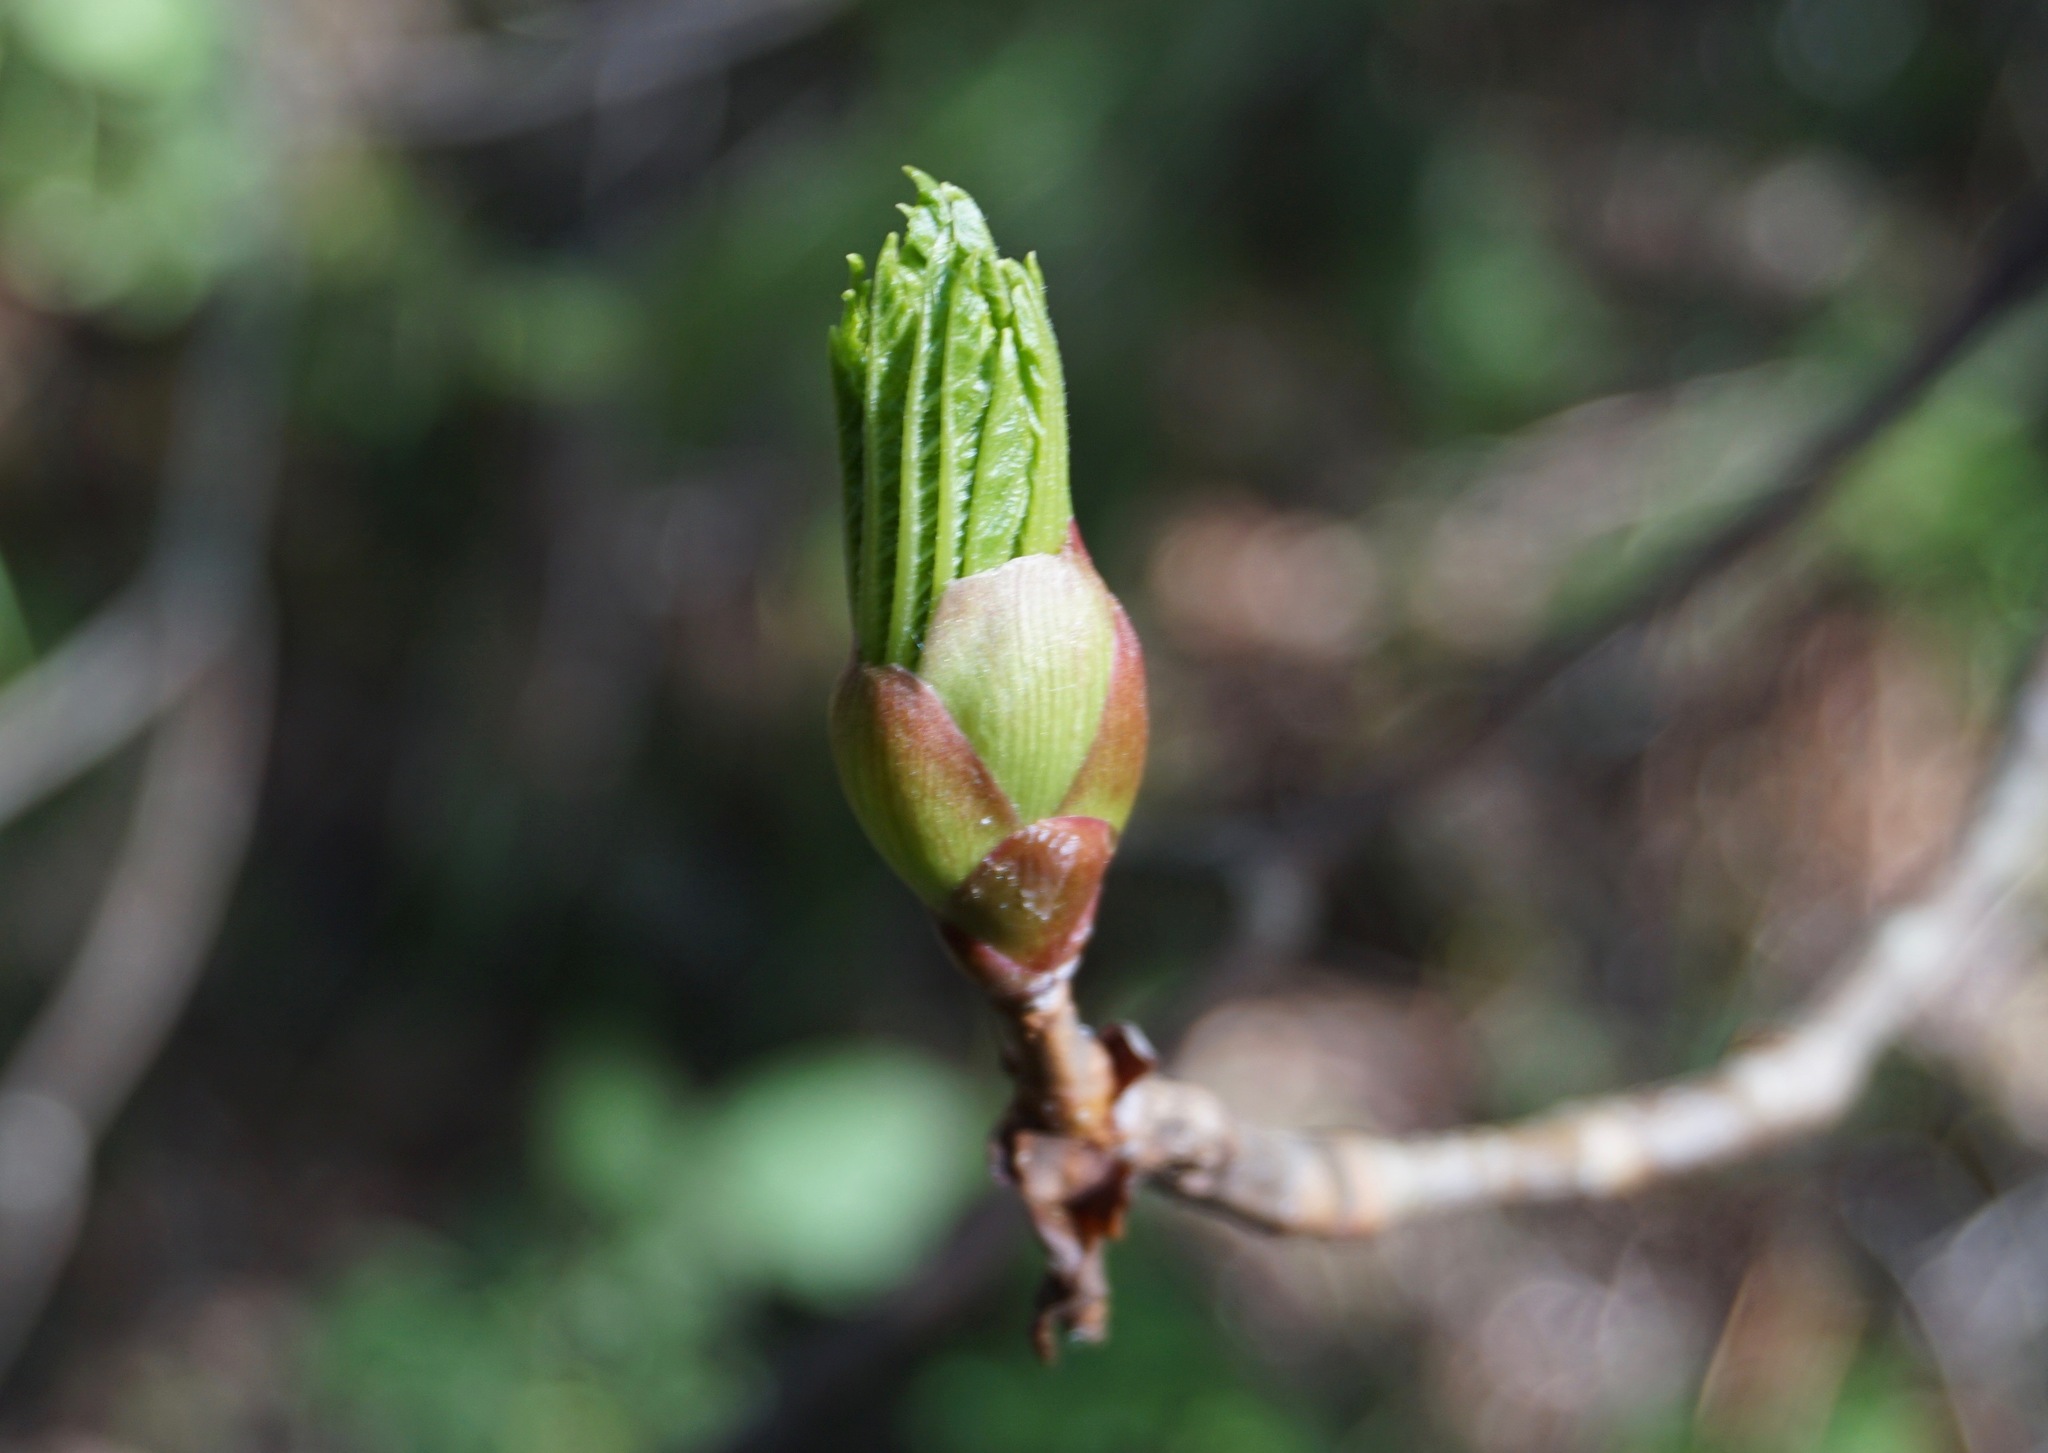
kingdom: Plantae
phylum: Tracheophyta
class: Magnoliopsida
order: Sapindales
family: Sapindaceae
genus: Aesculus
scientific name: Aesculus californica
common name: California buckeye
